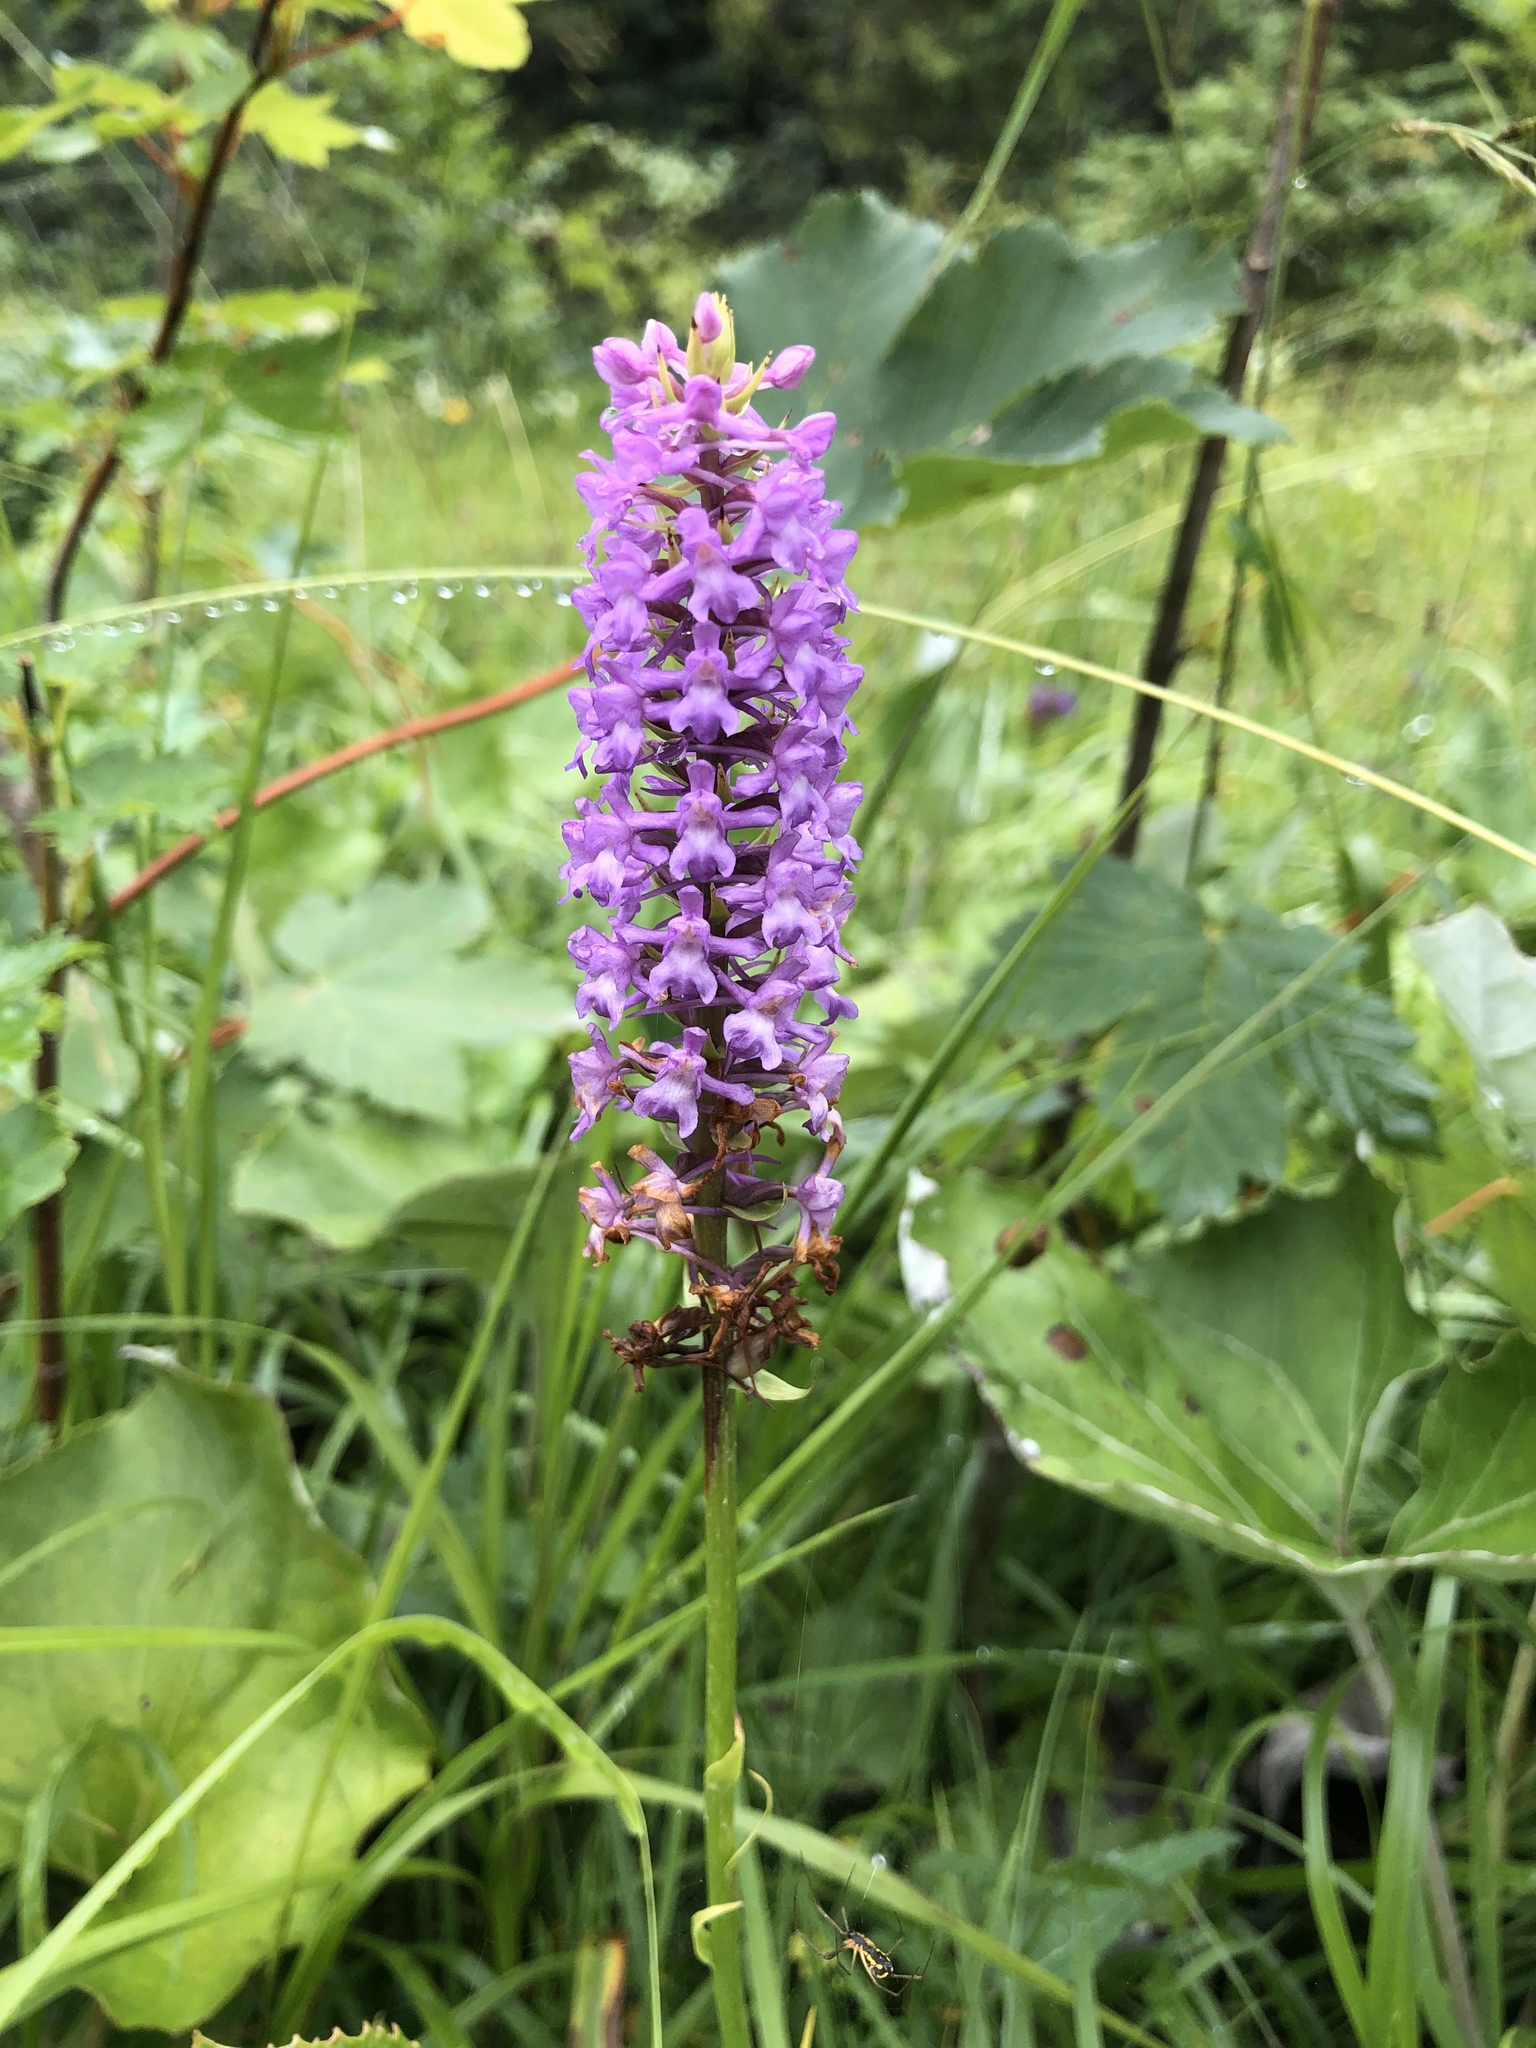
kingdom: Plantae
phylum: Tracheophyta
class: Liliopsida
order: Asparagales
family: Orchidaceae
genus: Gymnadenia
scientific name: Gymnadenia conopsea
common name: Fragrant orchid
